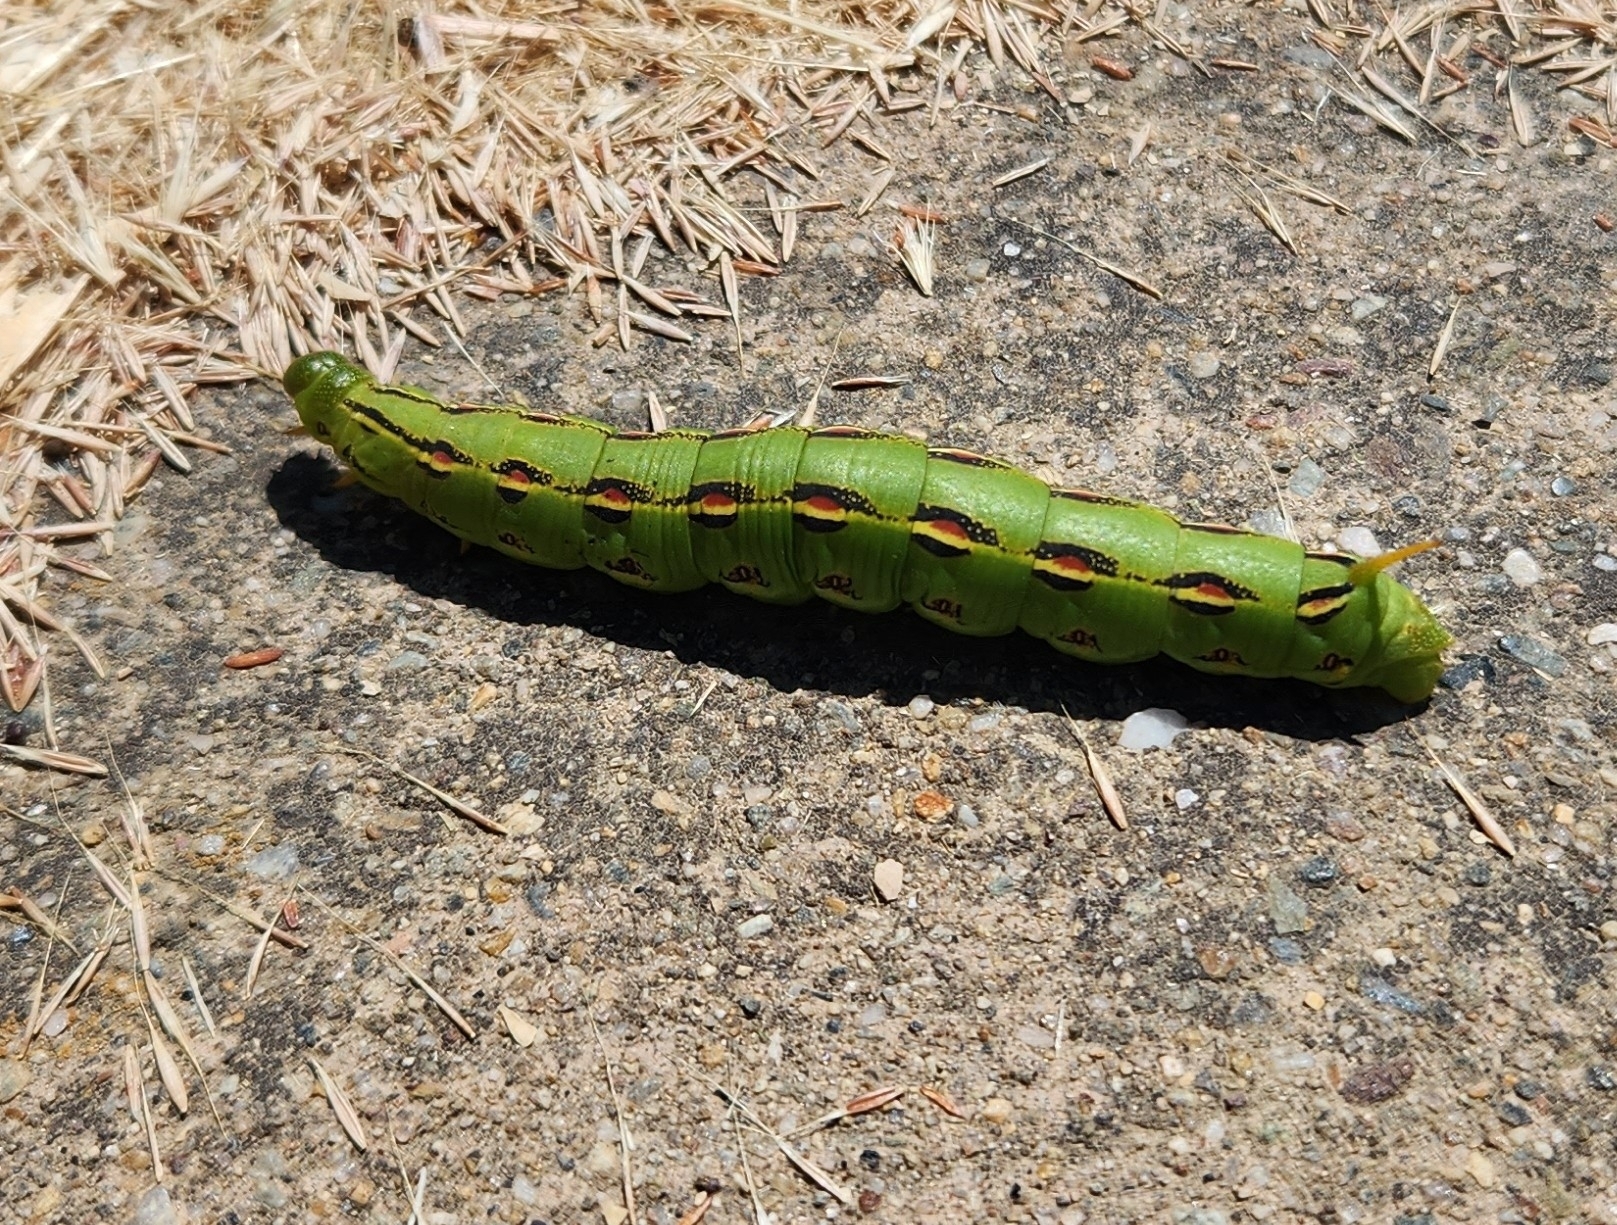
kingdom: Animalia
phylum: Arthropoda
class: Insecta
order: Lepidoptera
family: Sphingidae
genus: Hyles
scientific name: Hyles lineata
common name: White-lined sphinx
